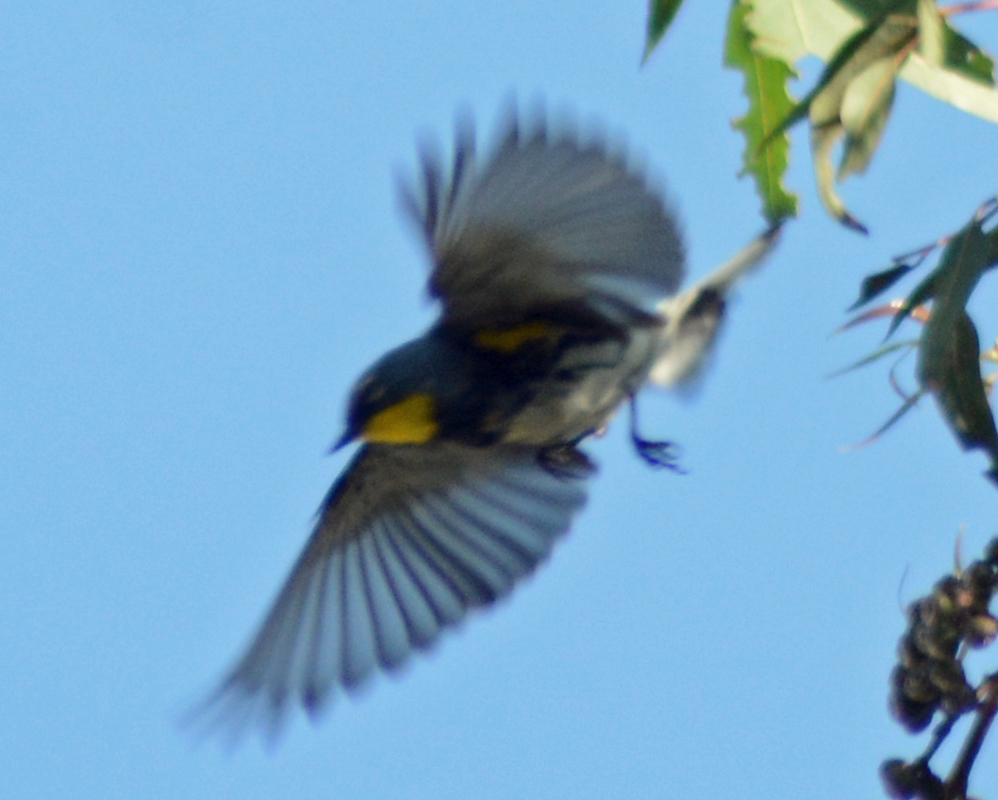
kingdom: Animalia
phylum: Chordata
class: Aves
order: Passeriformes
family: Parulidae
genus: Setophaga
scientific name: Setophaga auduboni
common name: Audubon's warbler
